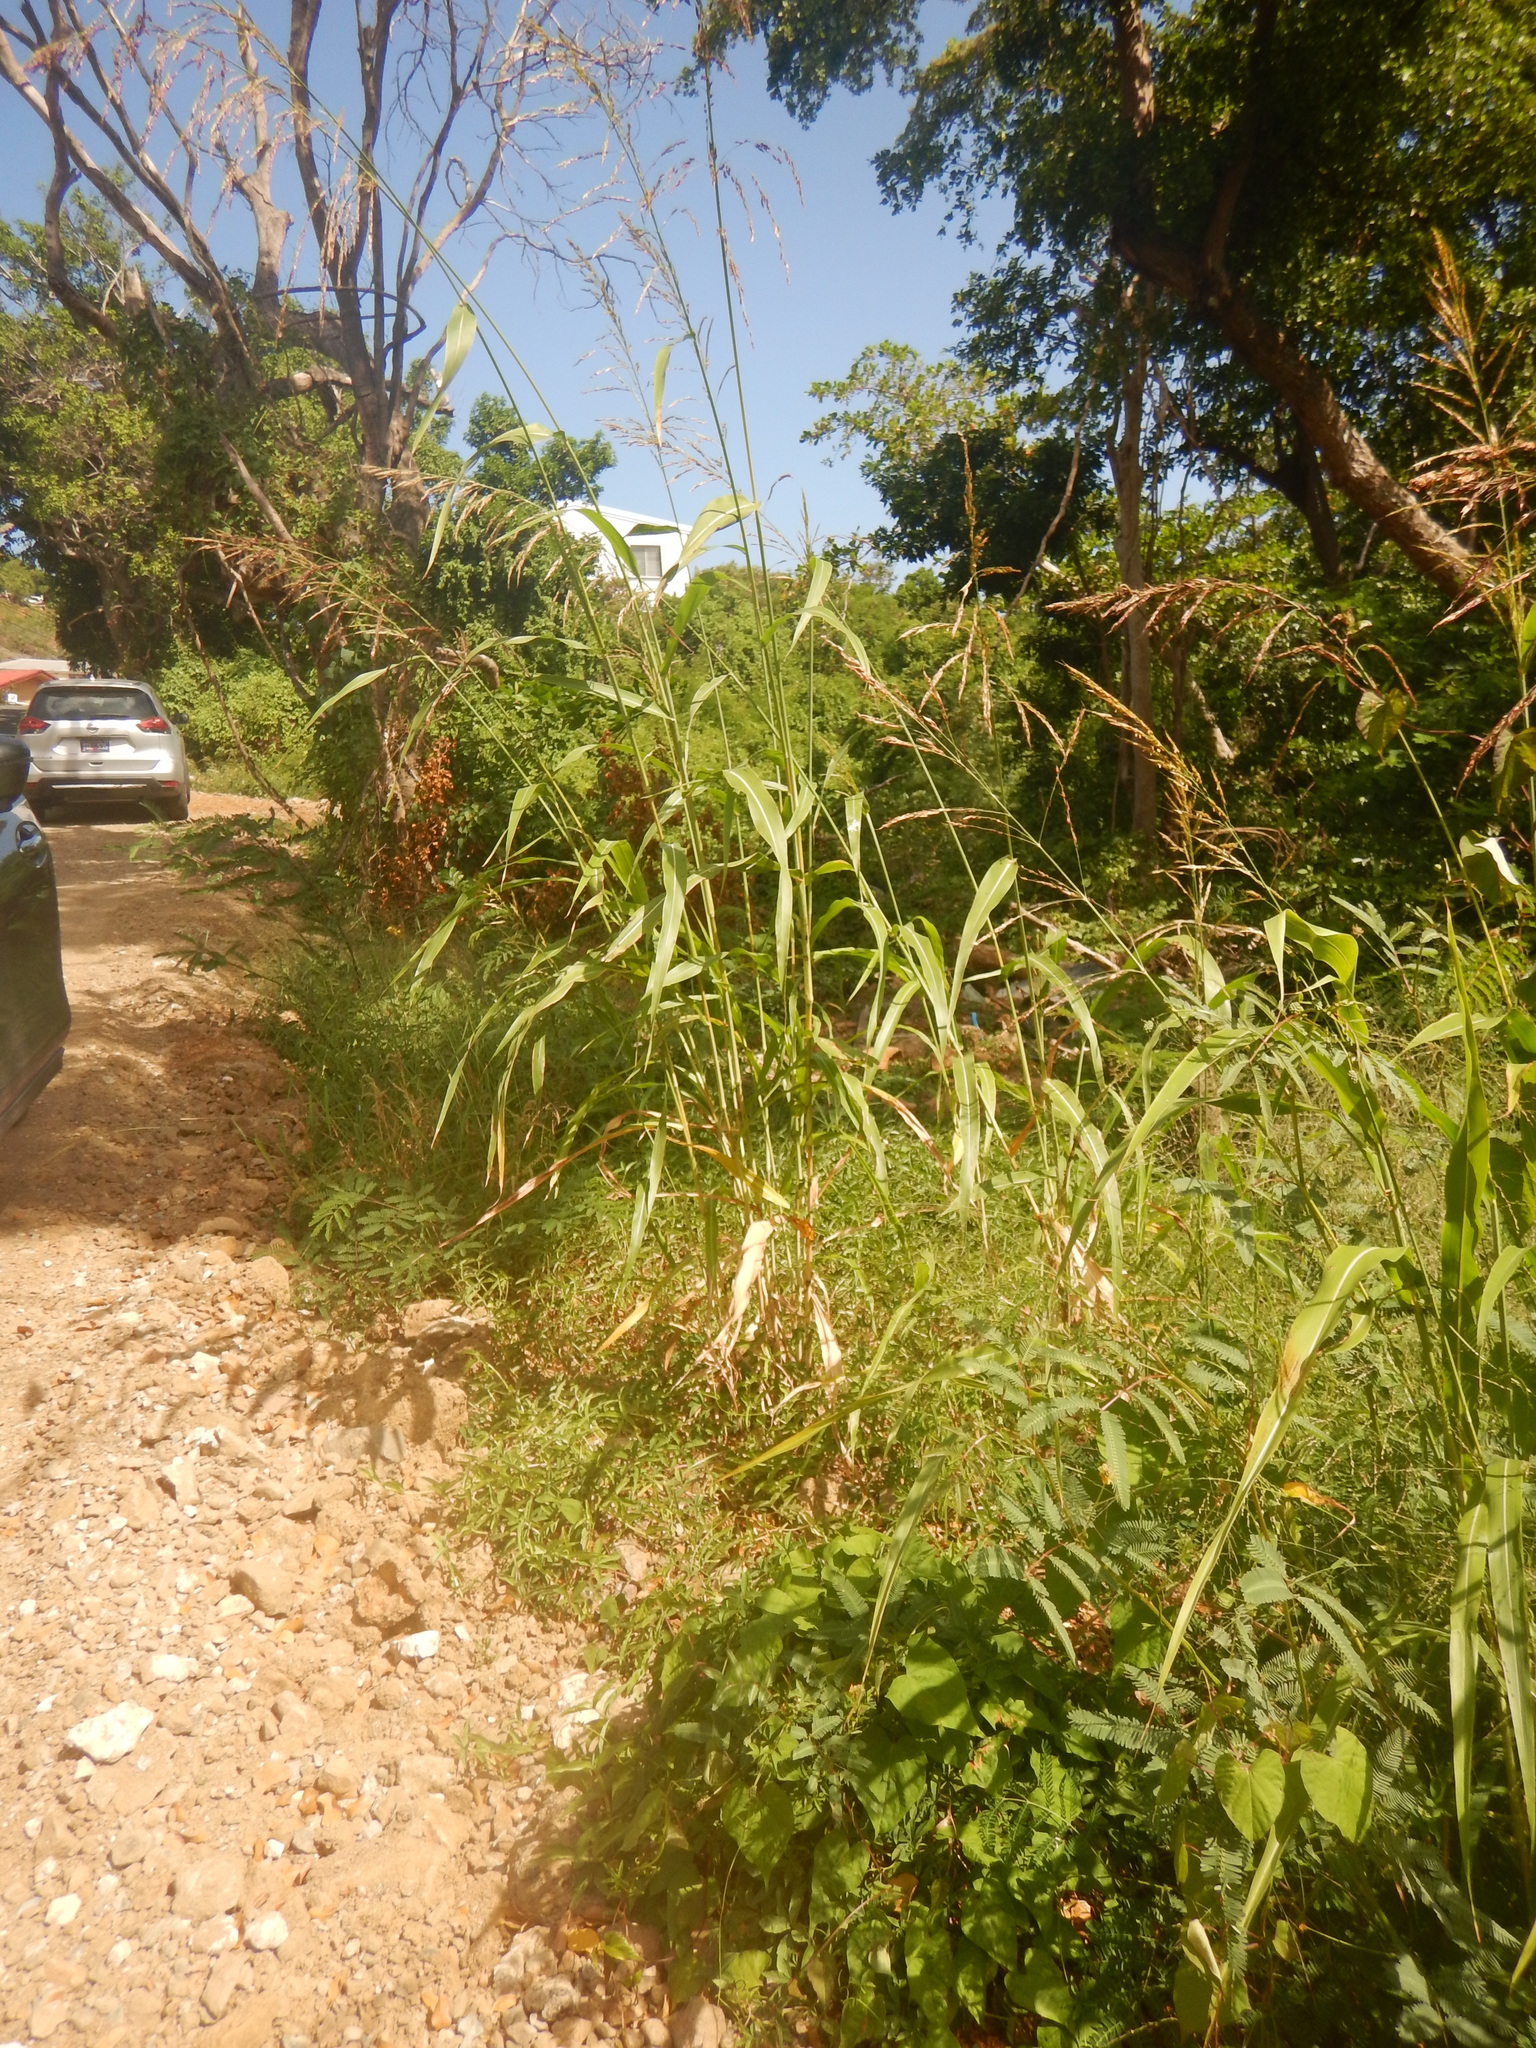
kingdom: Plantae
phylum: Tracheophyta
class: Liliopsida
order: Poales
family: Poaceae
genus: Sorghum
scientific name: Sorghum halepense
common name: Johnson-grass
